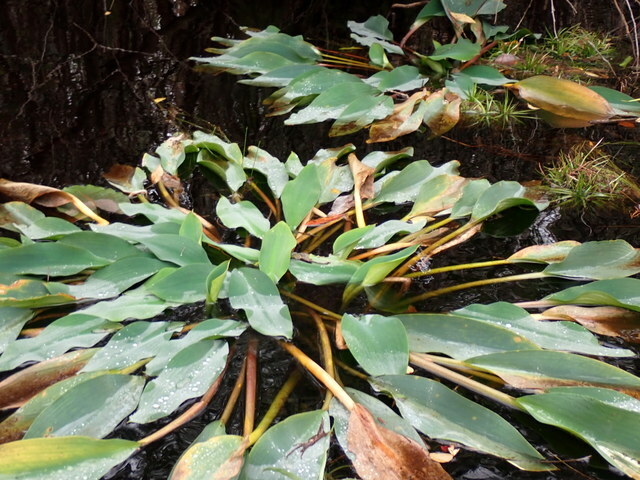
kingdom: Plantae
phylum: Tracheophyta
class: Liliopsida
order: Alismatales
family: Araceae
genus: Orontium
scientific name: Orontium aquaticum
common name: Golden-club
